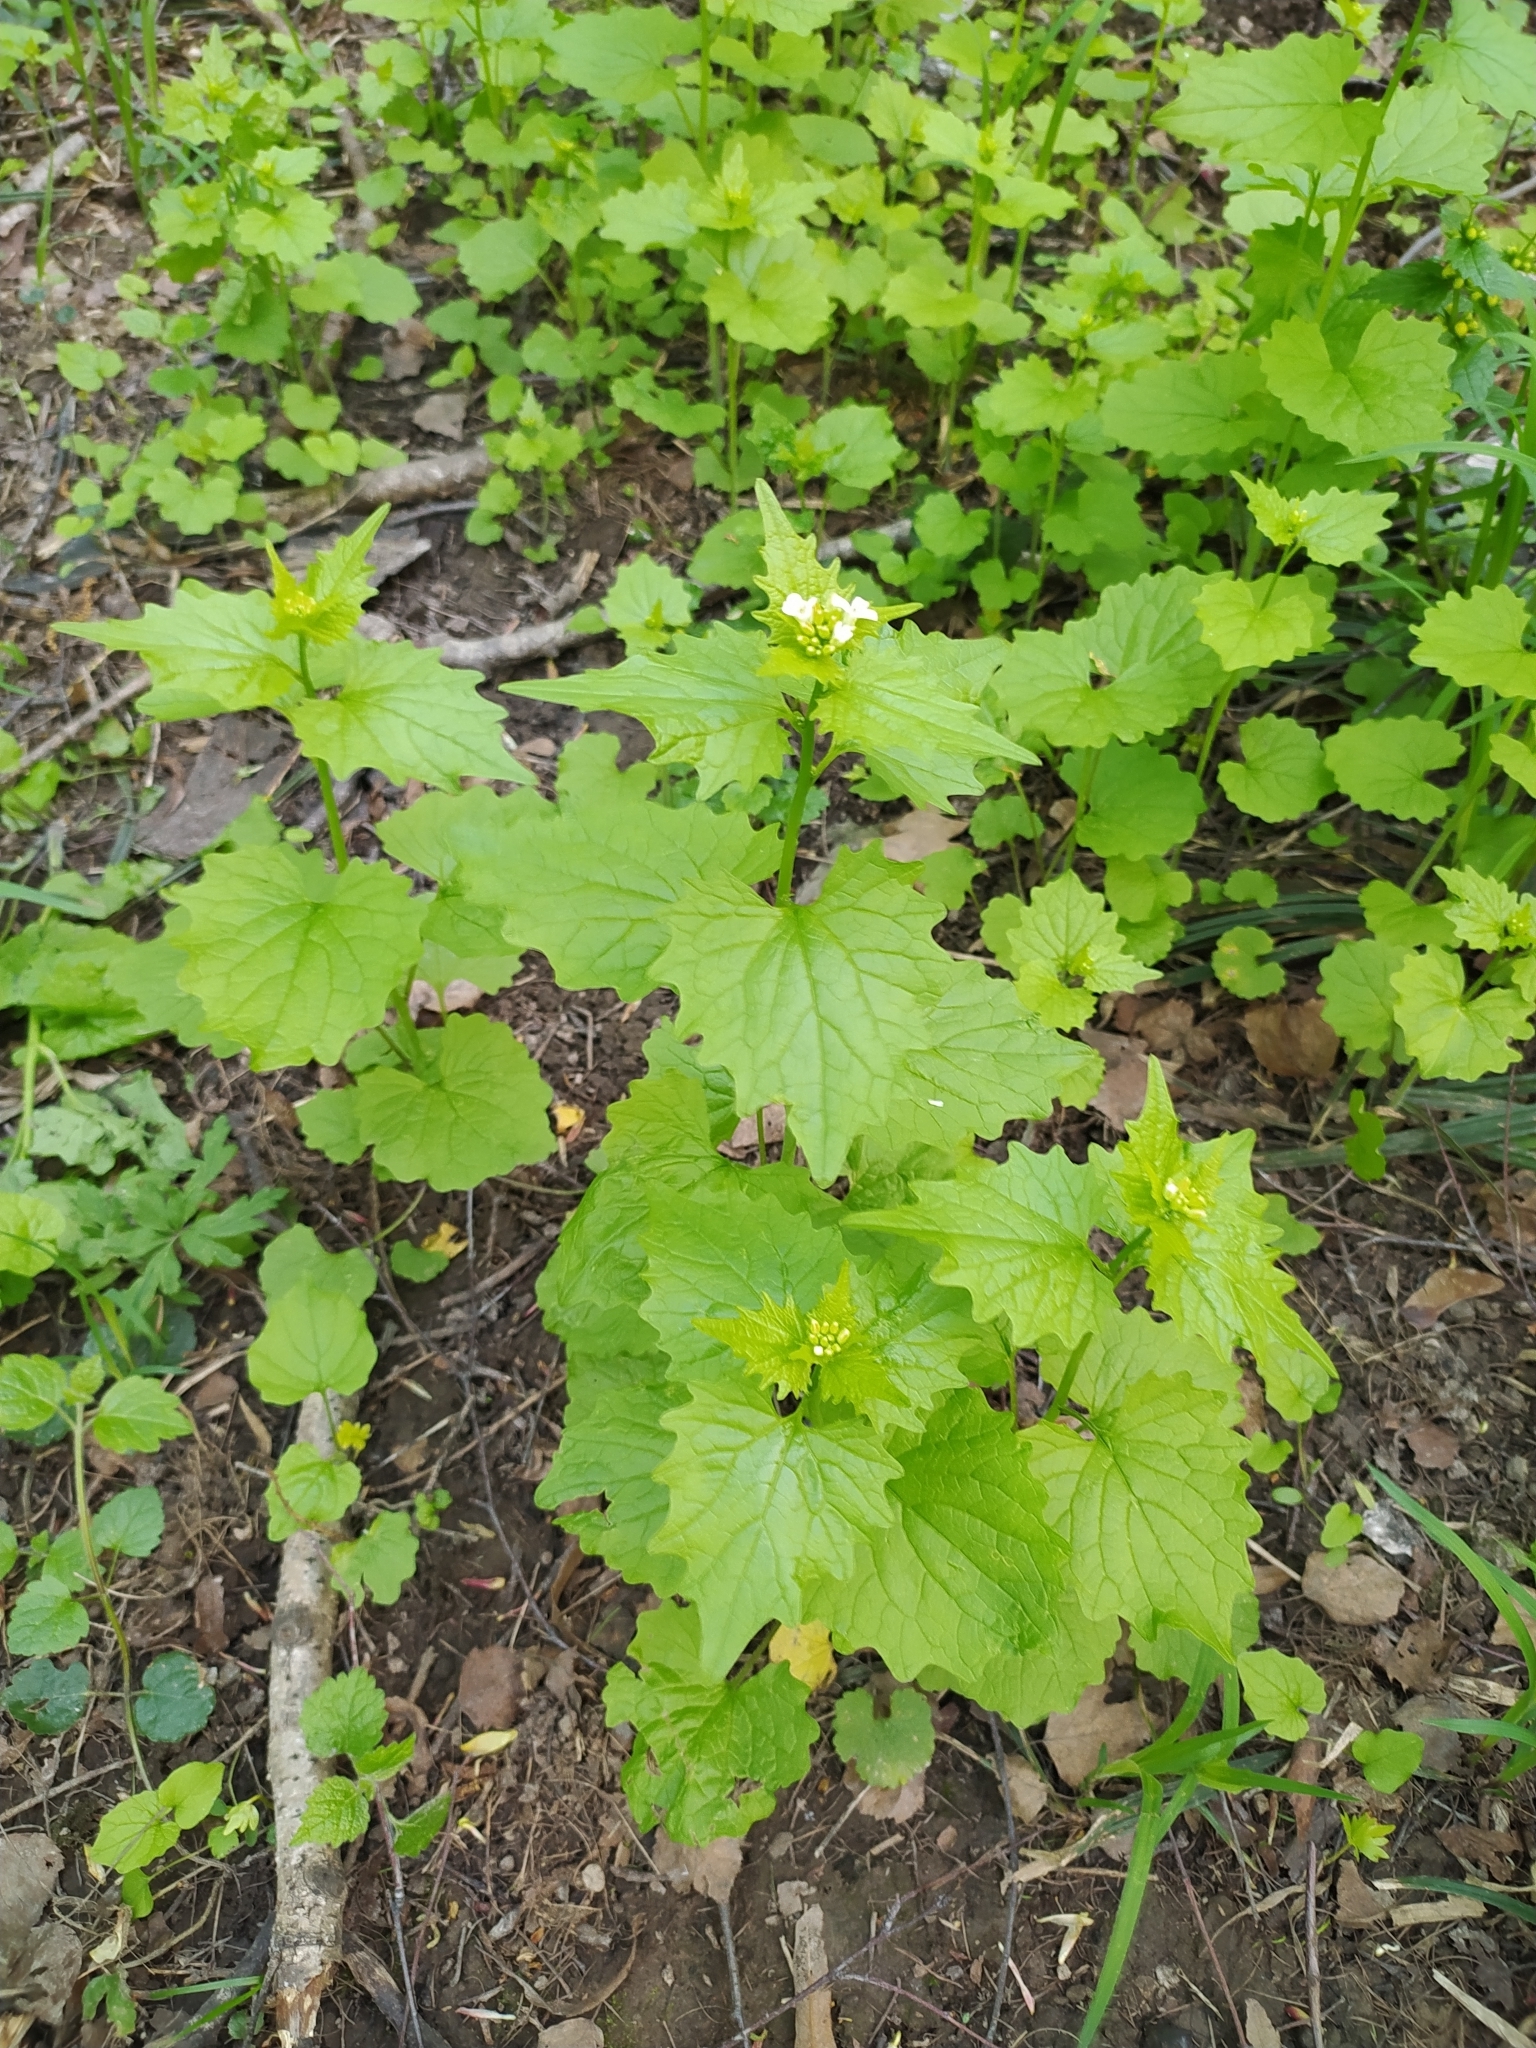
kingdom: Plantae
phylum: Tracheophyta
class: Magnoliopsida
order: Brassicales
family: Brassicaceae
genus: Alliaria
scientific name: Alliaria petiolata
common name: Garlic mustard
